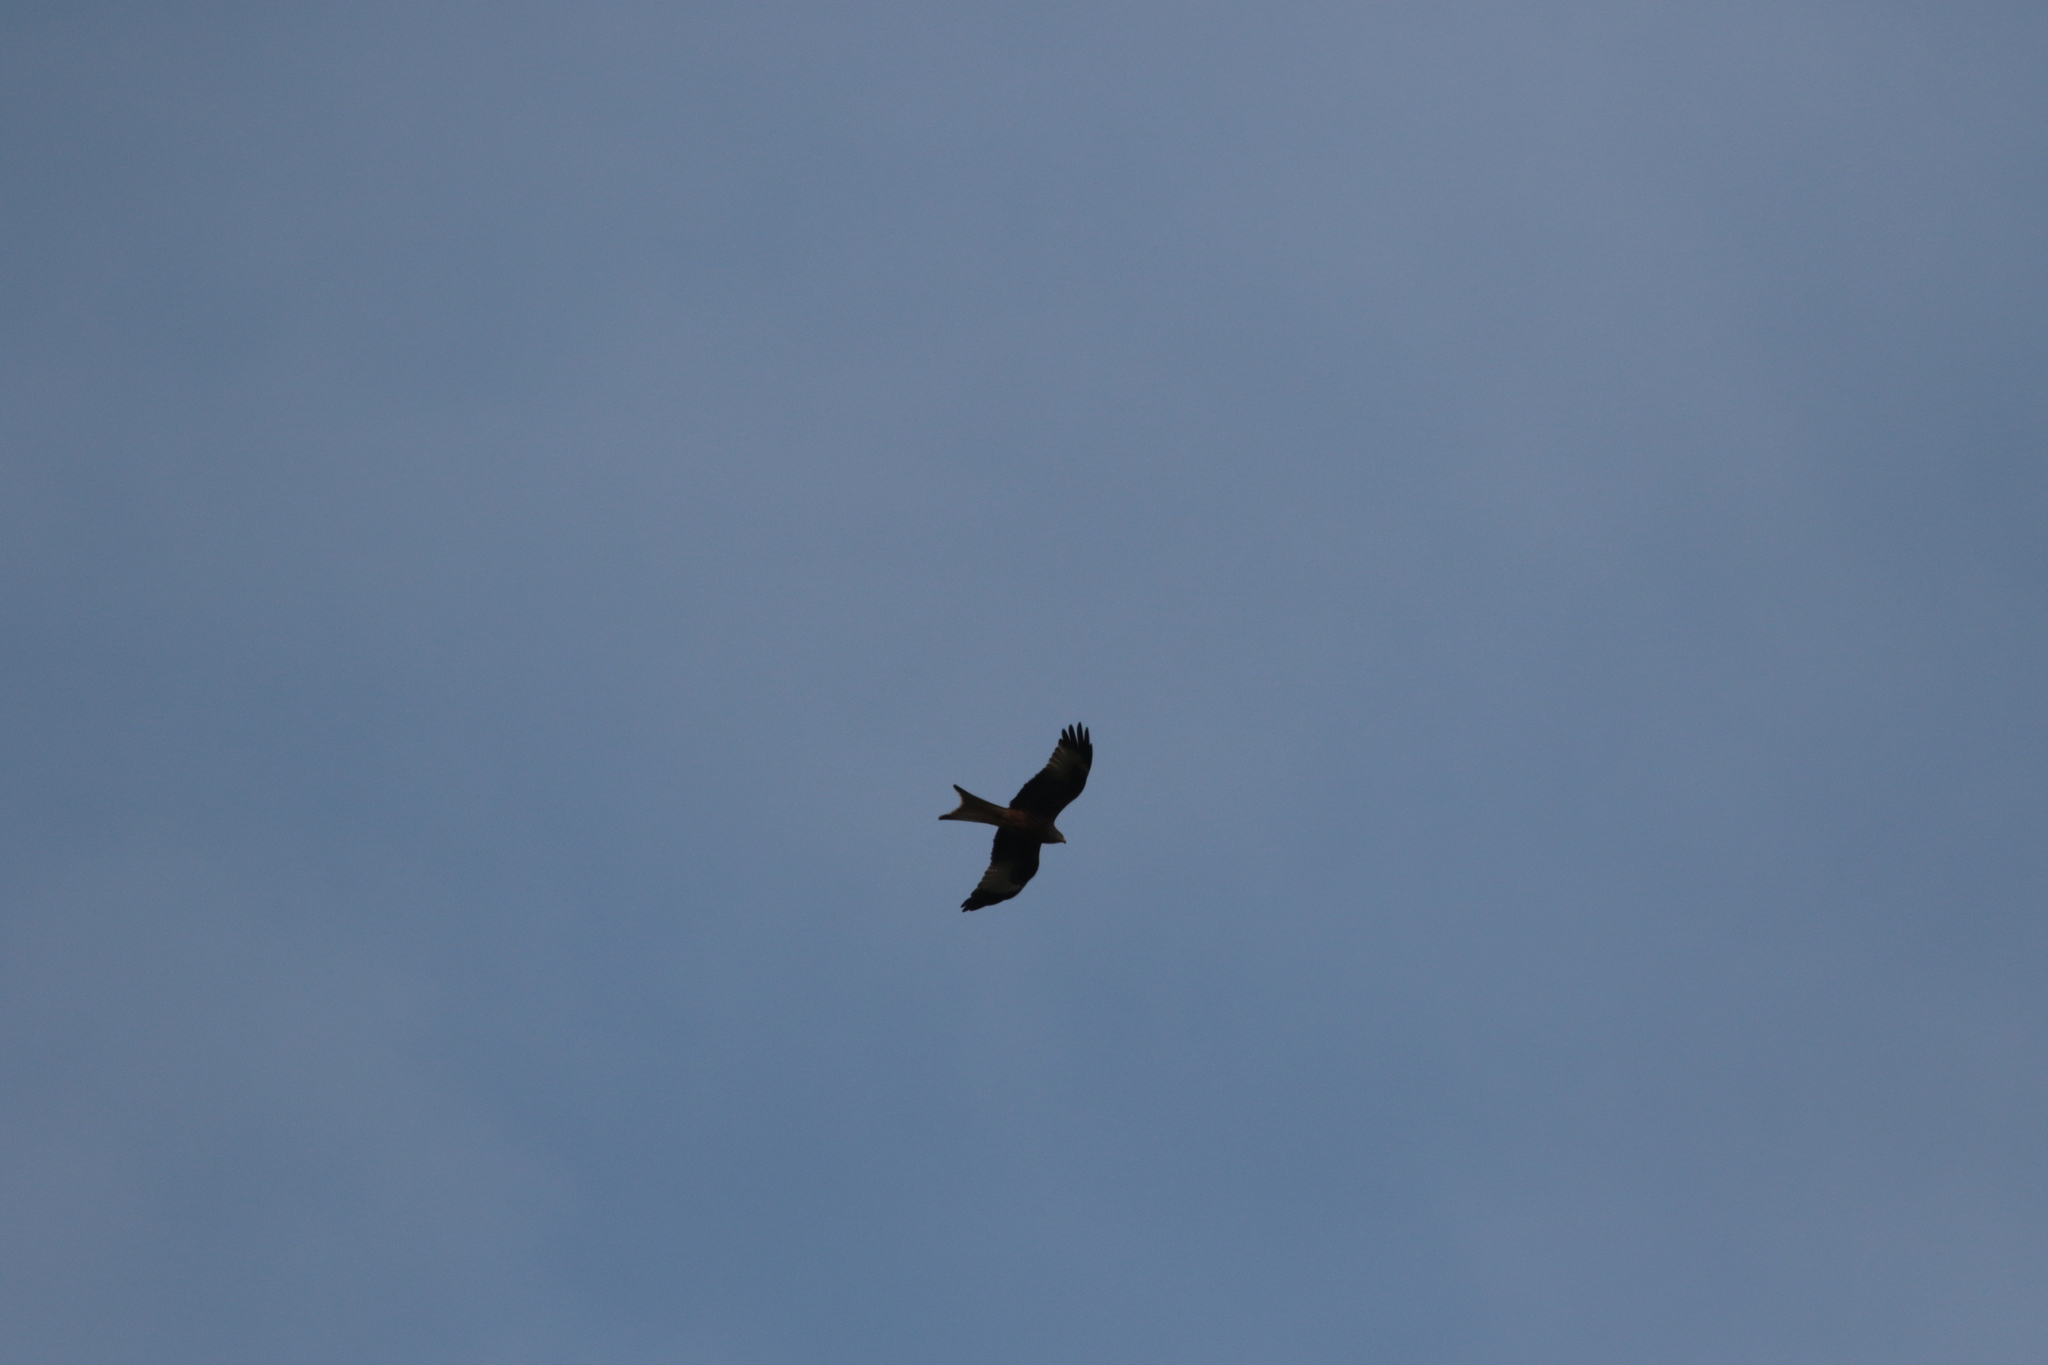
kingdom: Animalia
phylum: Chordata
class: Aves
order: Accipitriformes
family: Accipitridae
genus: Milvus
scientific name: Milvus milvus
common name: Red kite
